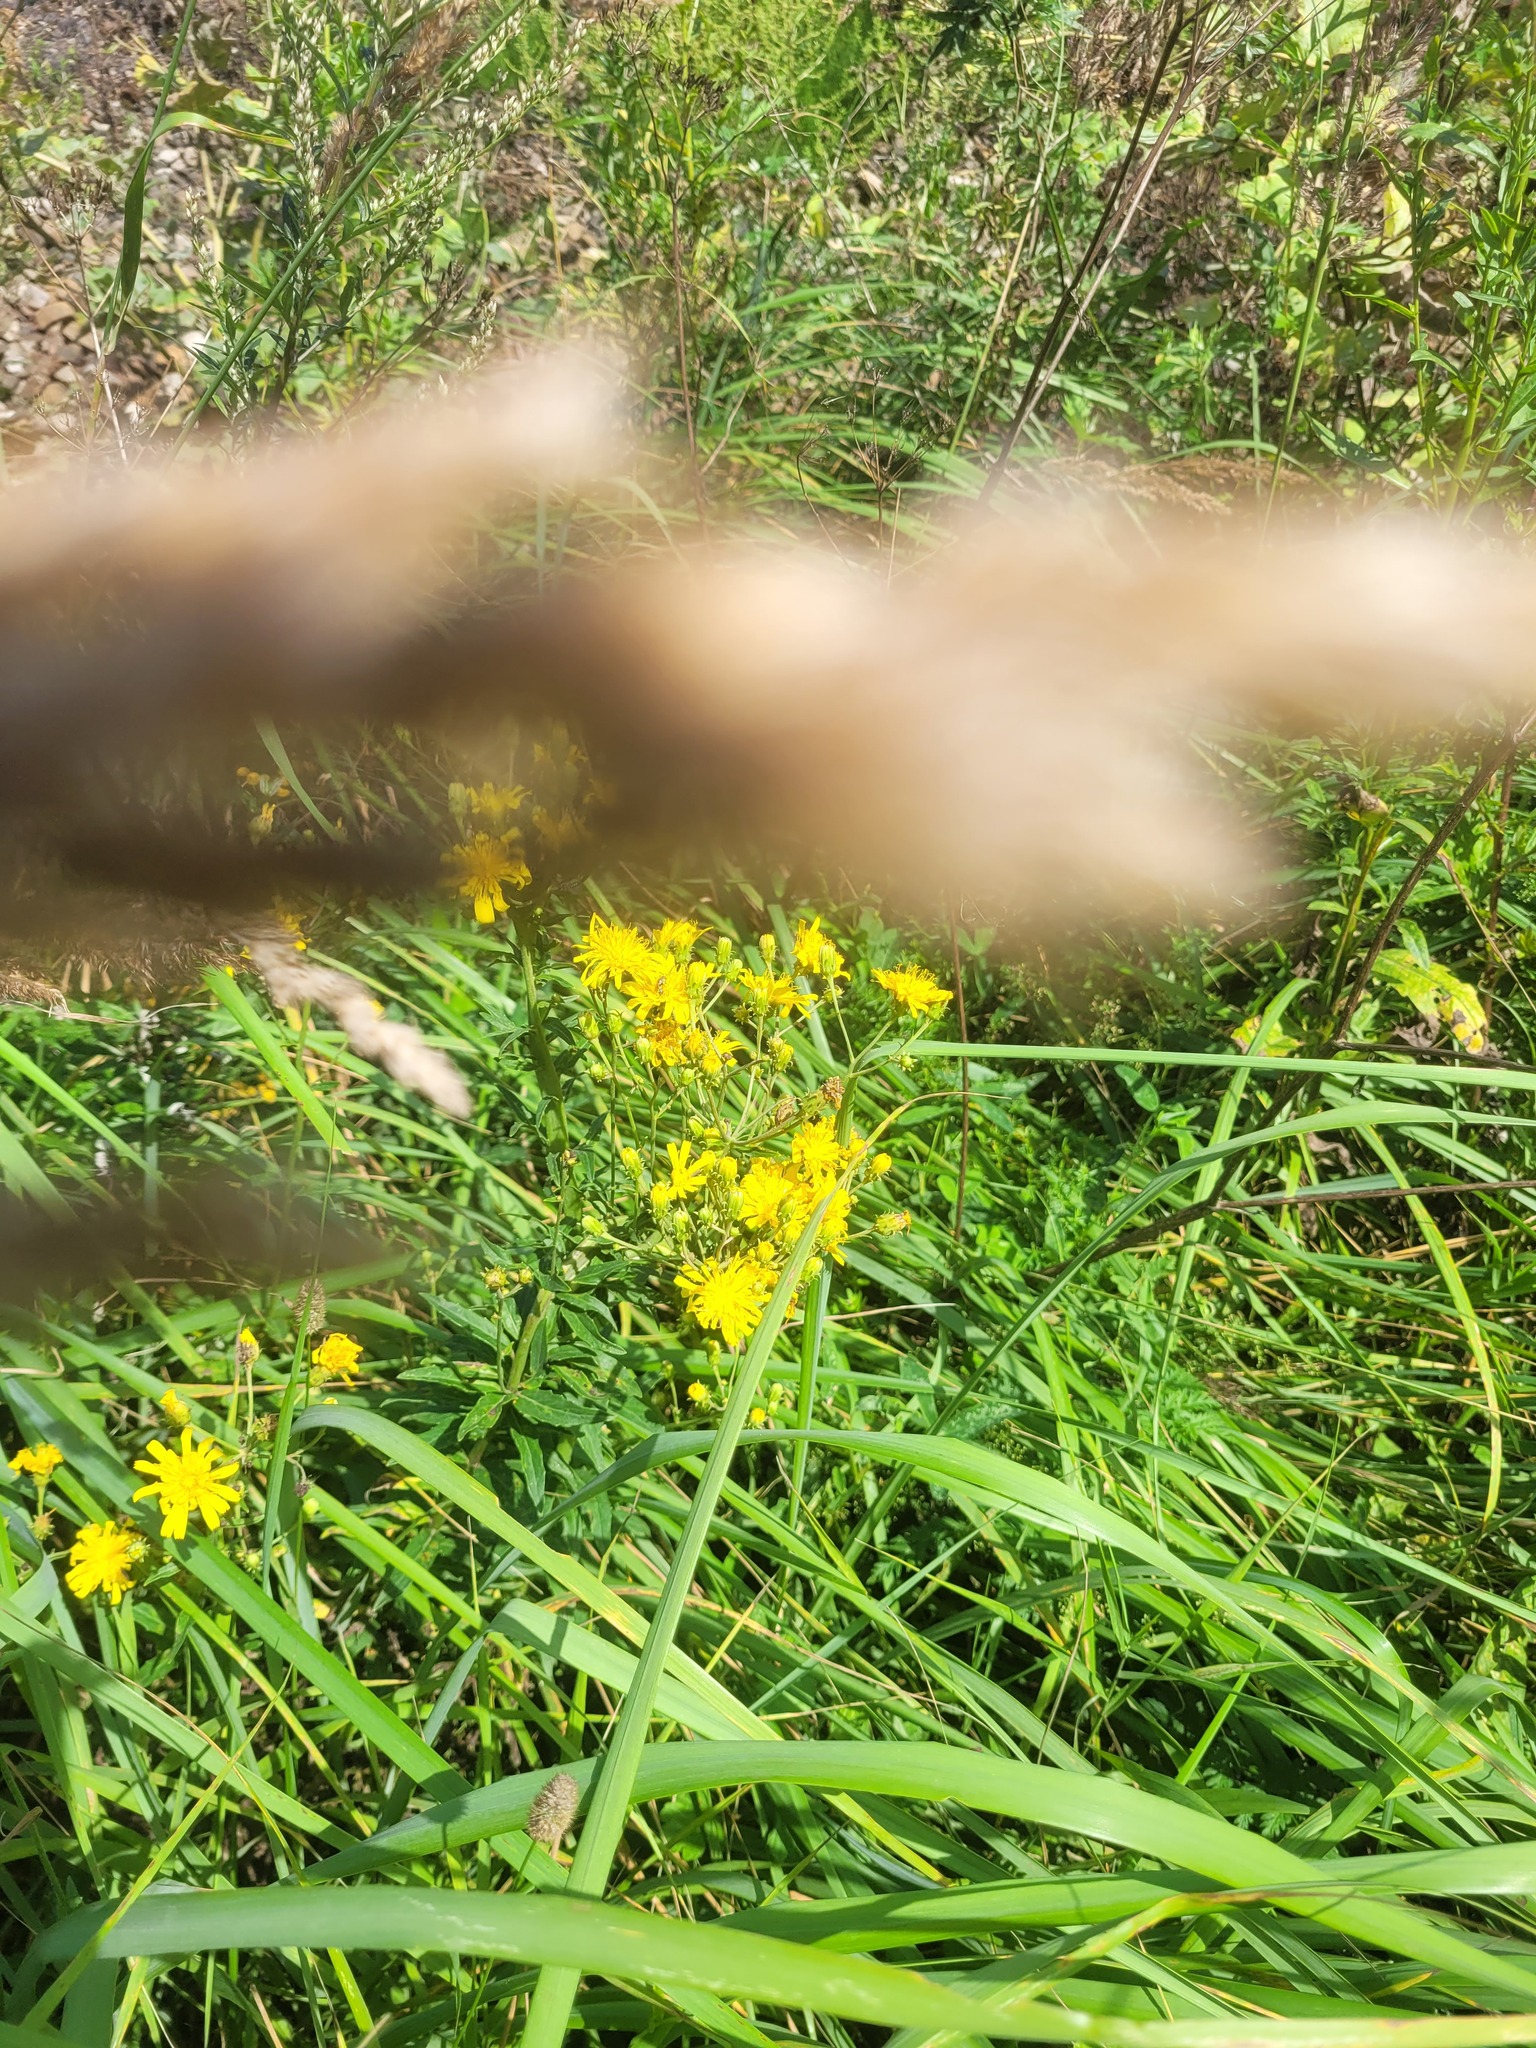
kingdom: Plantae
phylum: Tracheophyta
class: Magnoliopsida
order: Asterales
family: Asteraceae
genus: Hieracium
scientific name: Hieracium umbellatum
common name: Northern hawkweed
